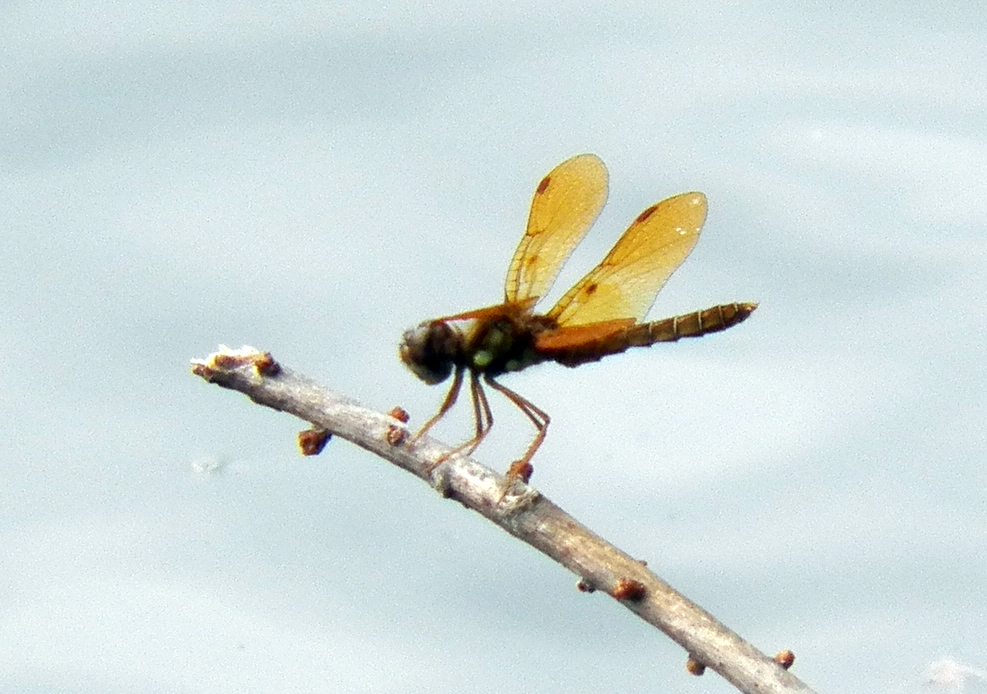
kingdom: Animalia
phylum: Arthropoda
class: Insecta
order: Odonata
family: Libellulidae
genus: Perithemis
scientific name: Perithemis tenera
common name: Eastern amberwing
